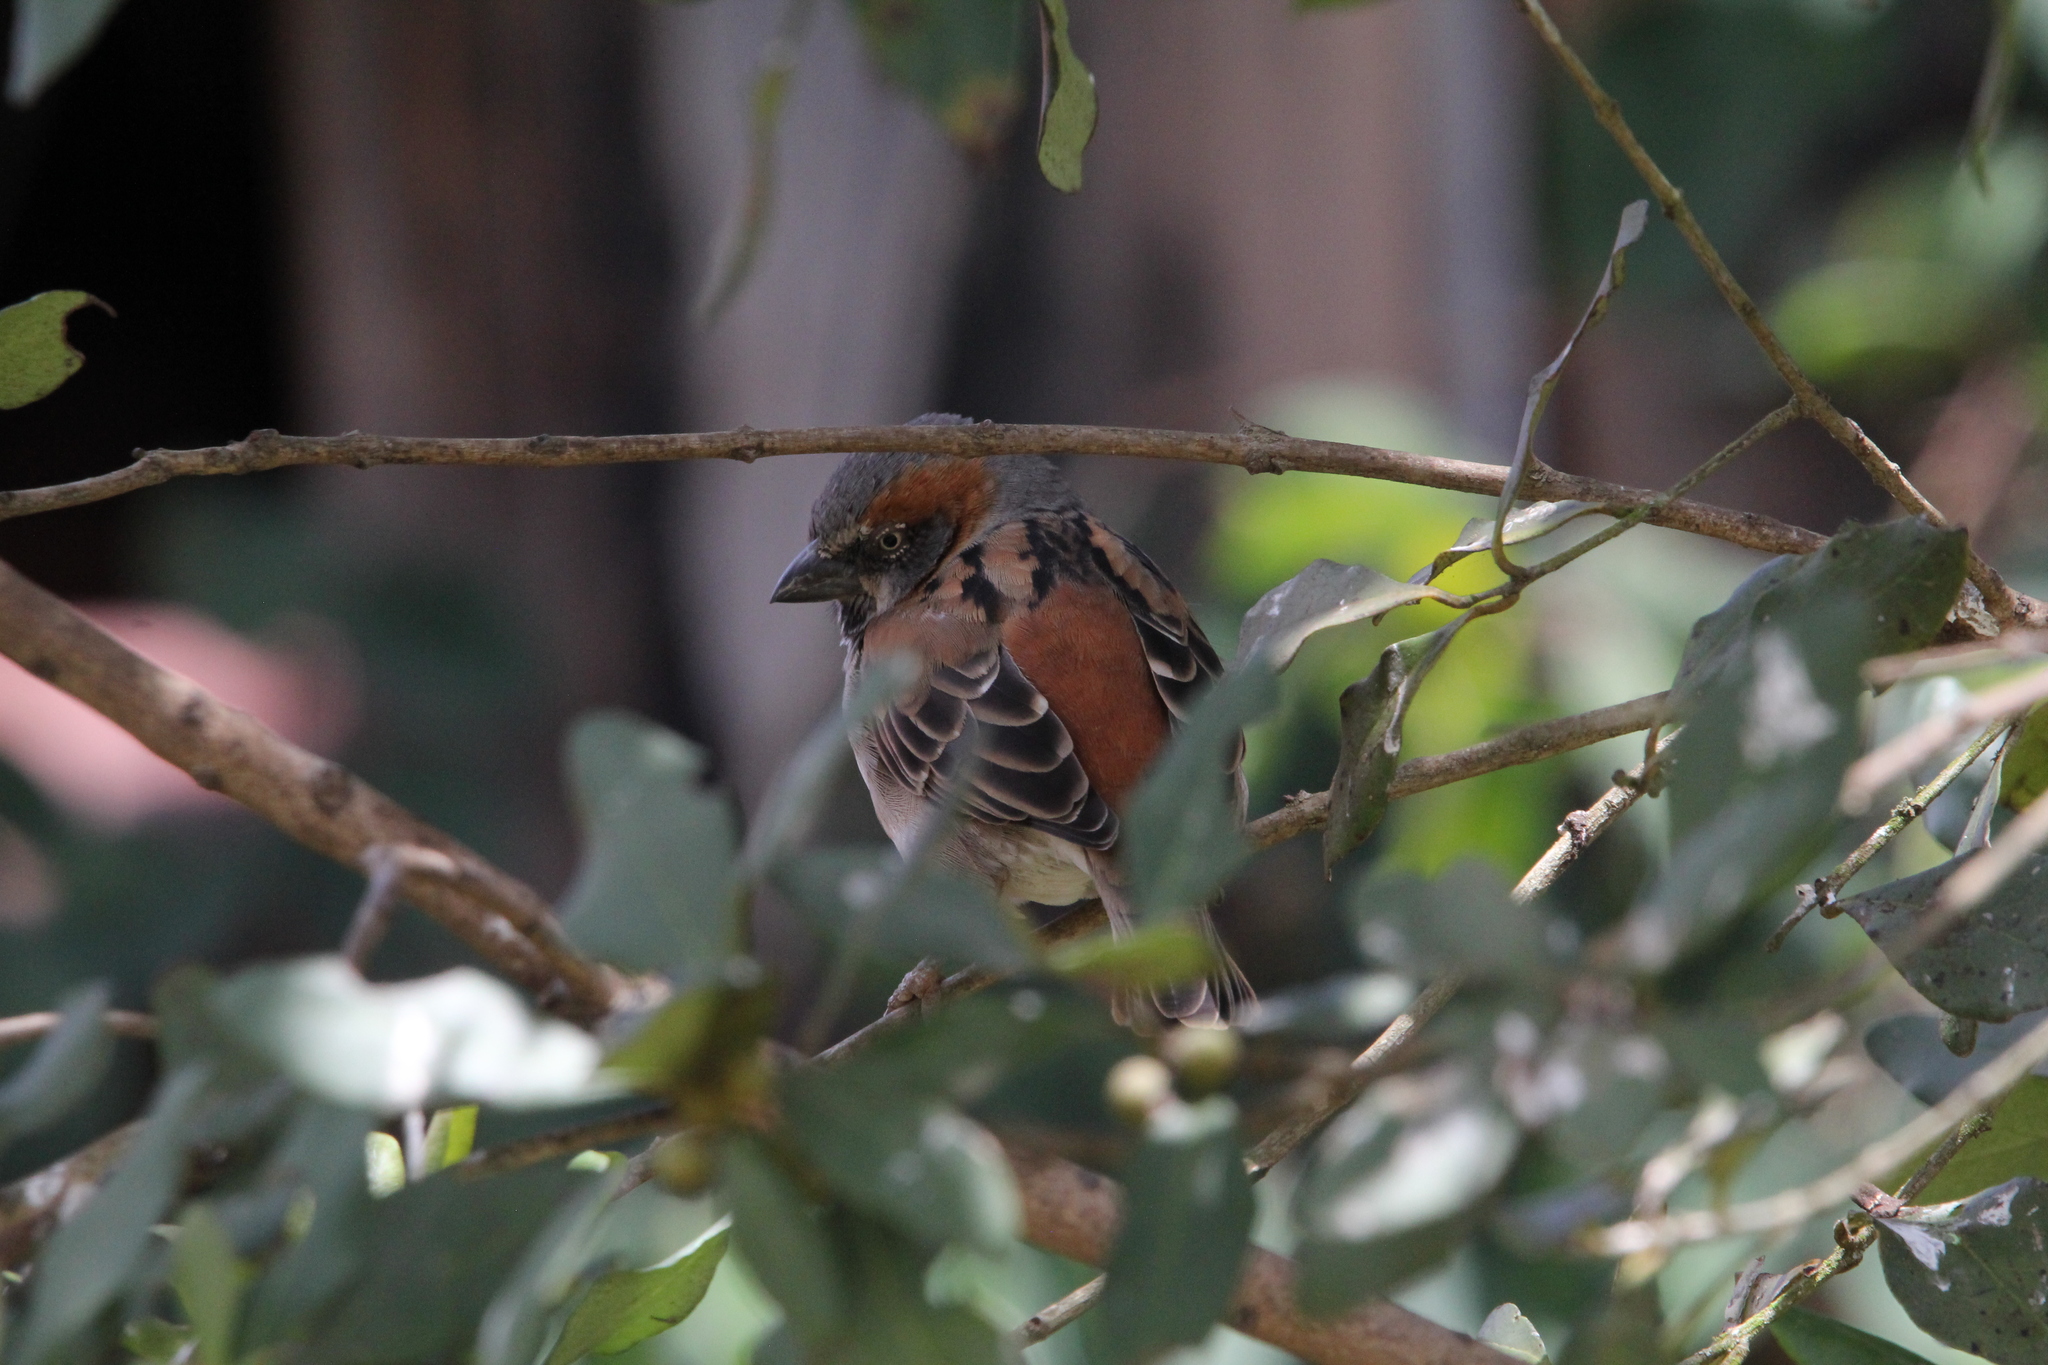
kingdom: Animalia
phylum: Chordata
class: Aves
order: Passeriformes
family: Passeridae
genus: Passer
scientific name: Passer rufocinctus
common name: Kenya sparrow
